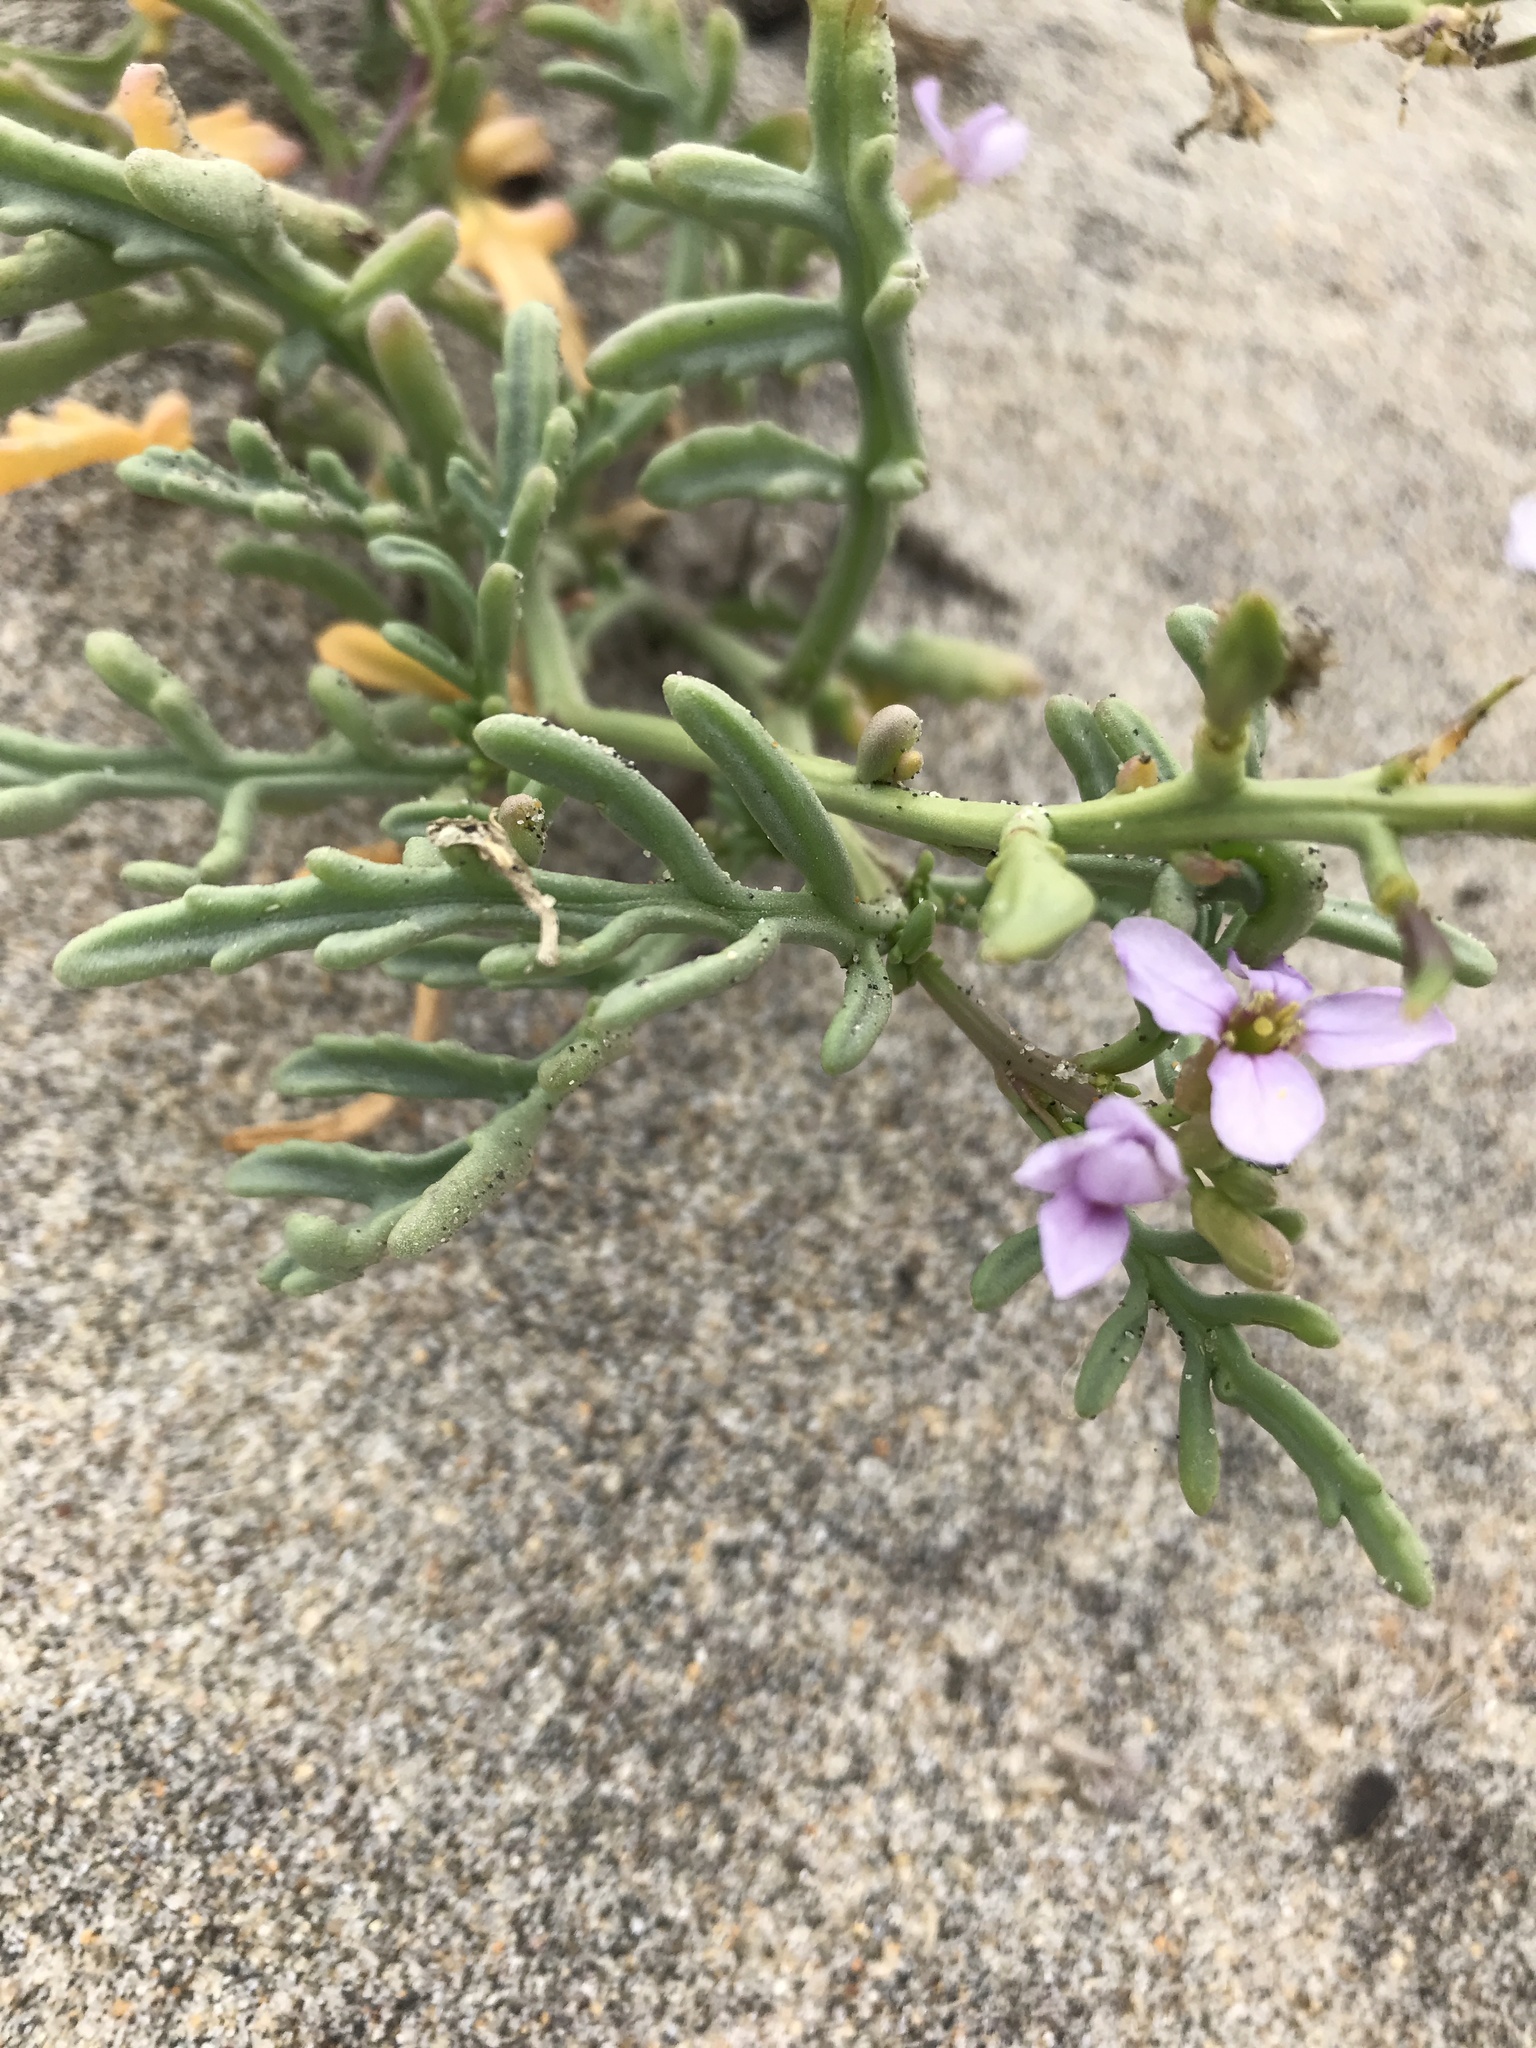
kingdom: Plantae
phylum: Tracheophyta
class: Magnoliopsida
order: Brassicales
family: Brassicaceae
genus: Cakile
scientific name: Cakile maritima
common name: Sea rocket
